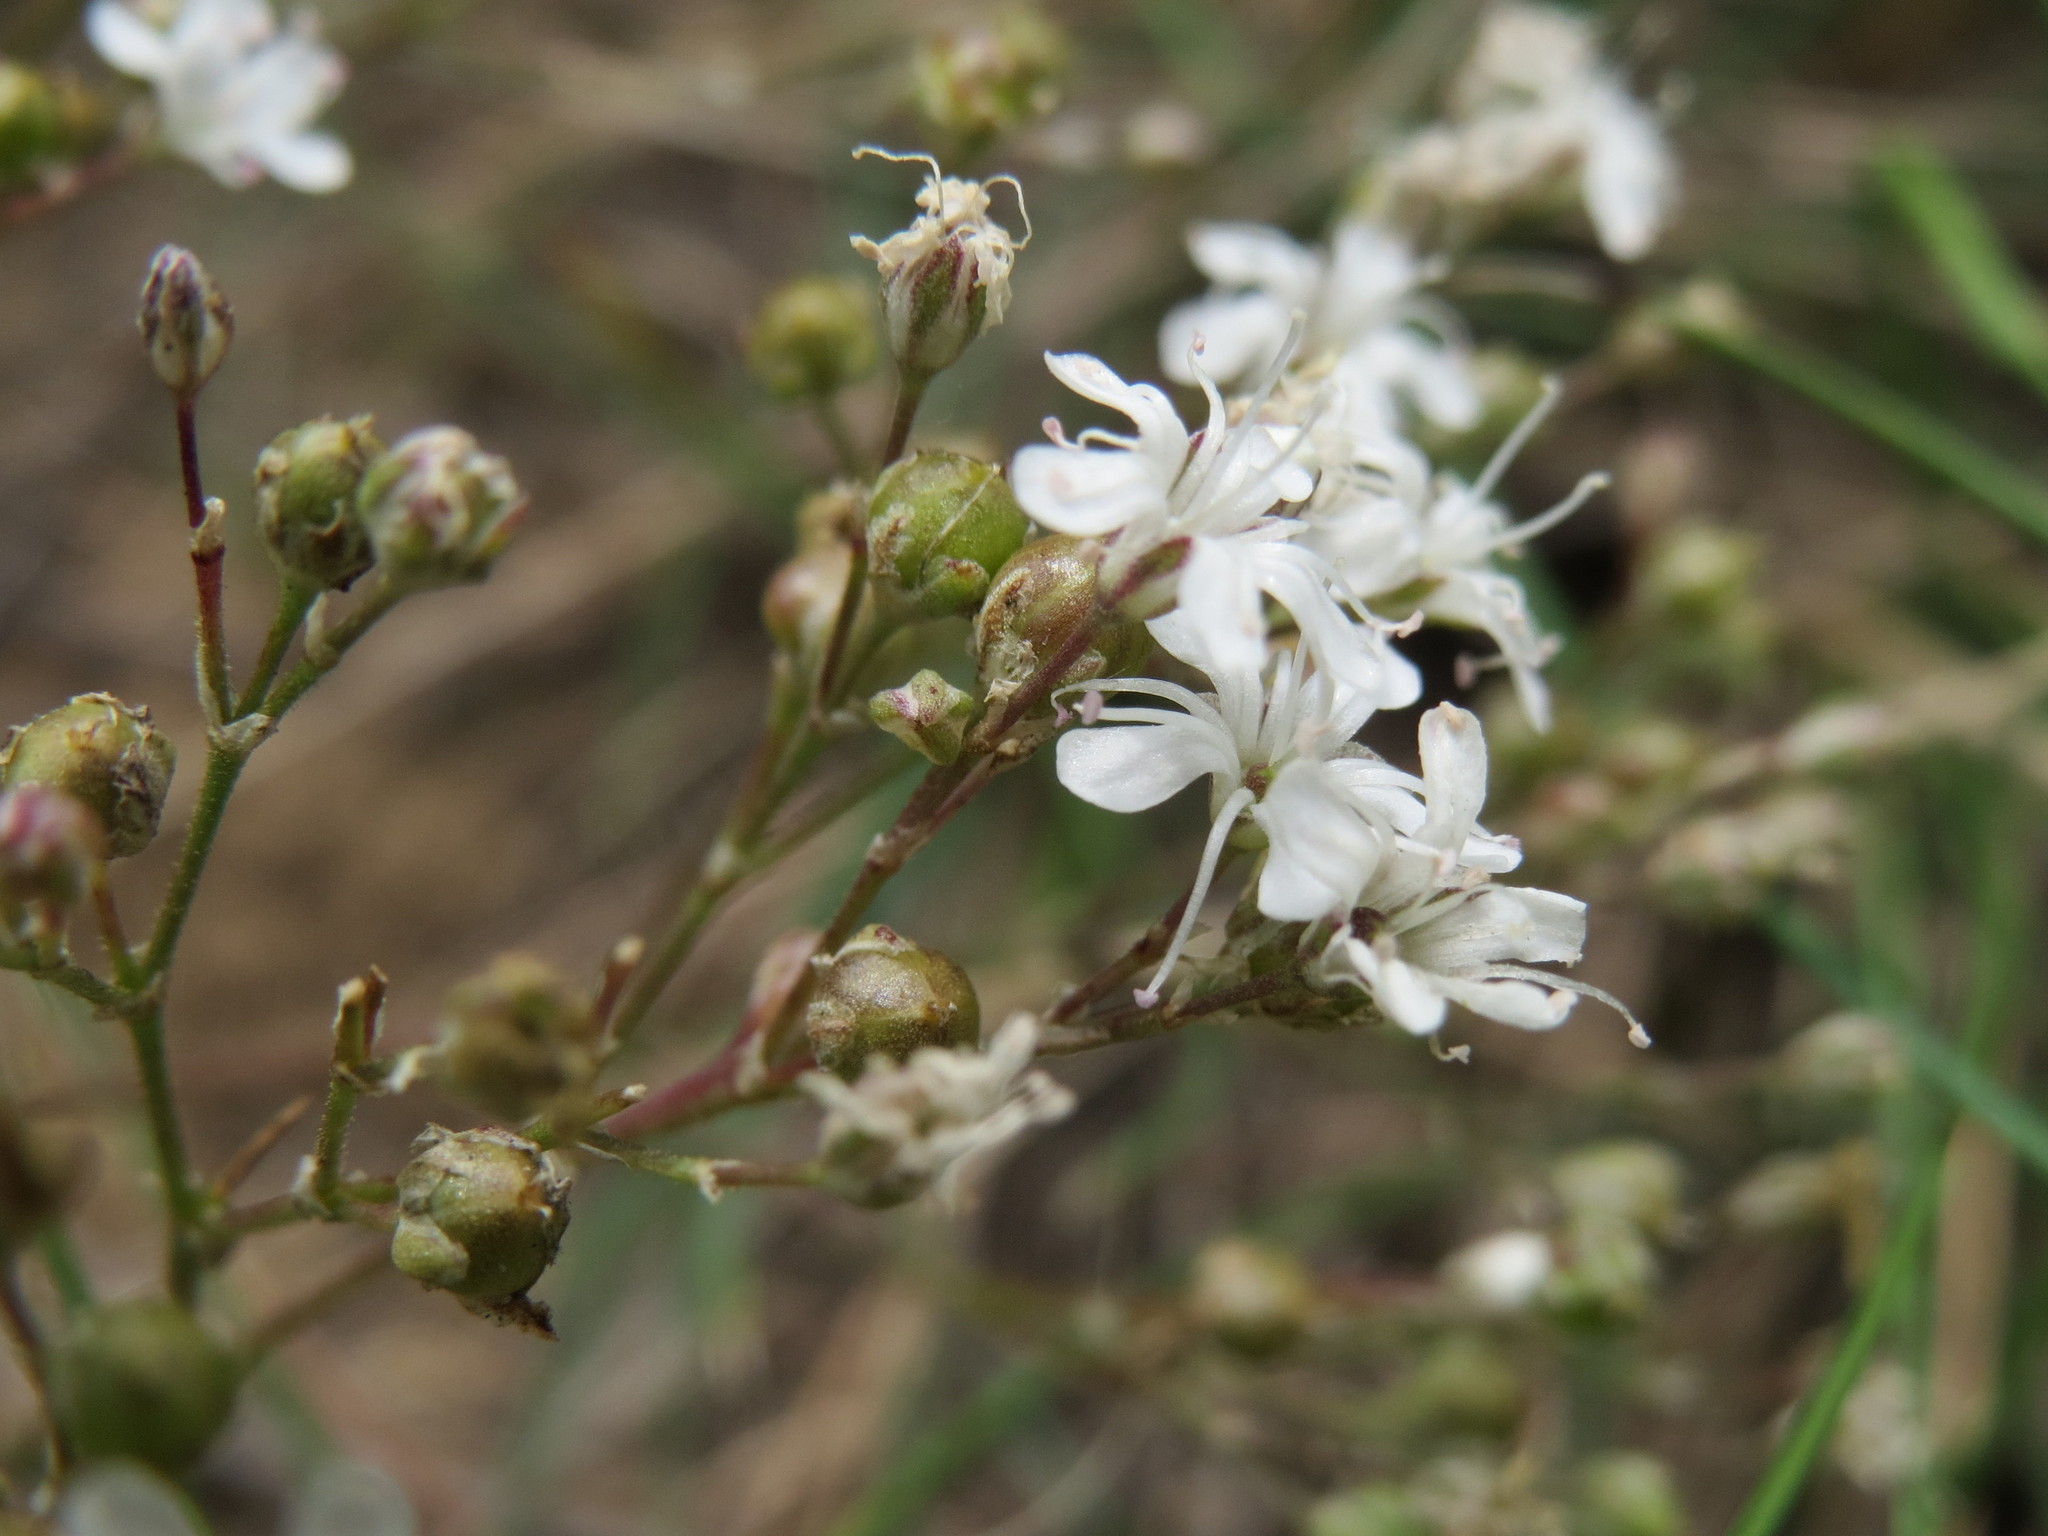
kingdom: Plantae
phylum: Tracheophyta
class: Magnoliopsida
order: Caryophyllales
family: Caryophyllaceae
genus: Gypsophila
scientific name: Gypsophila fastigiata
